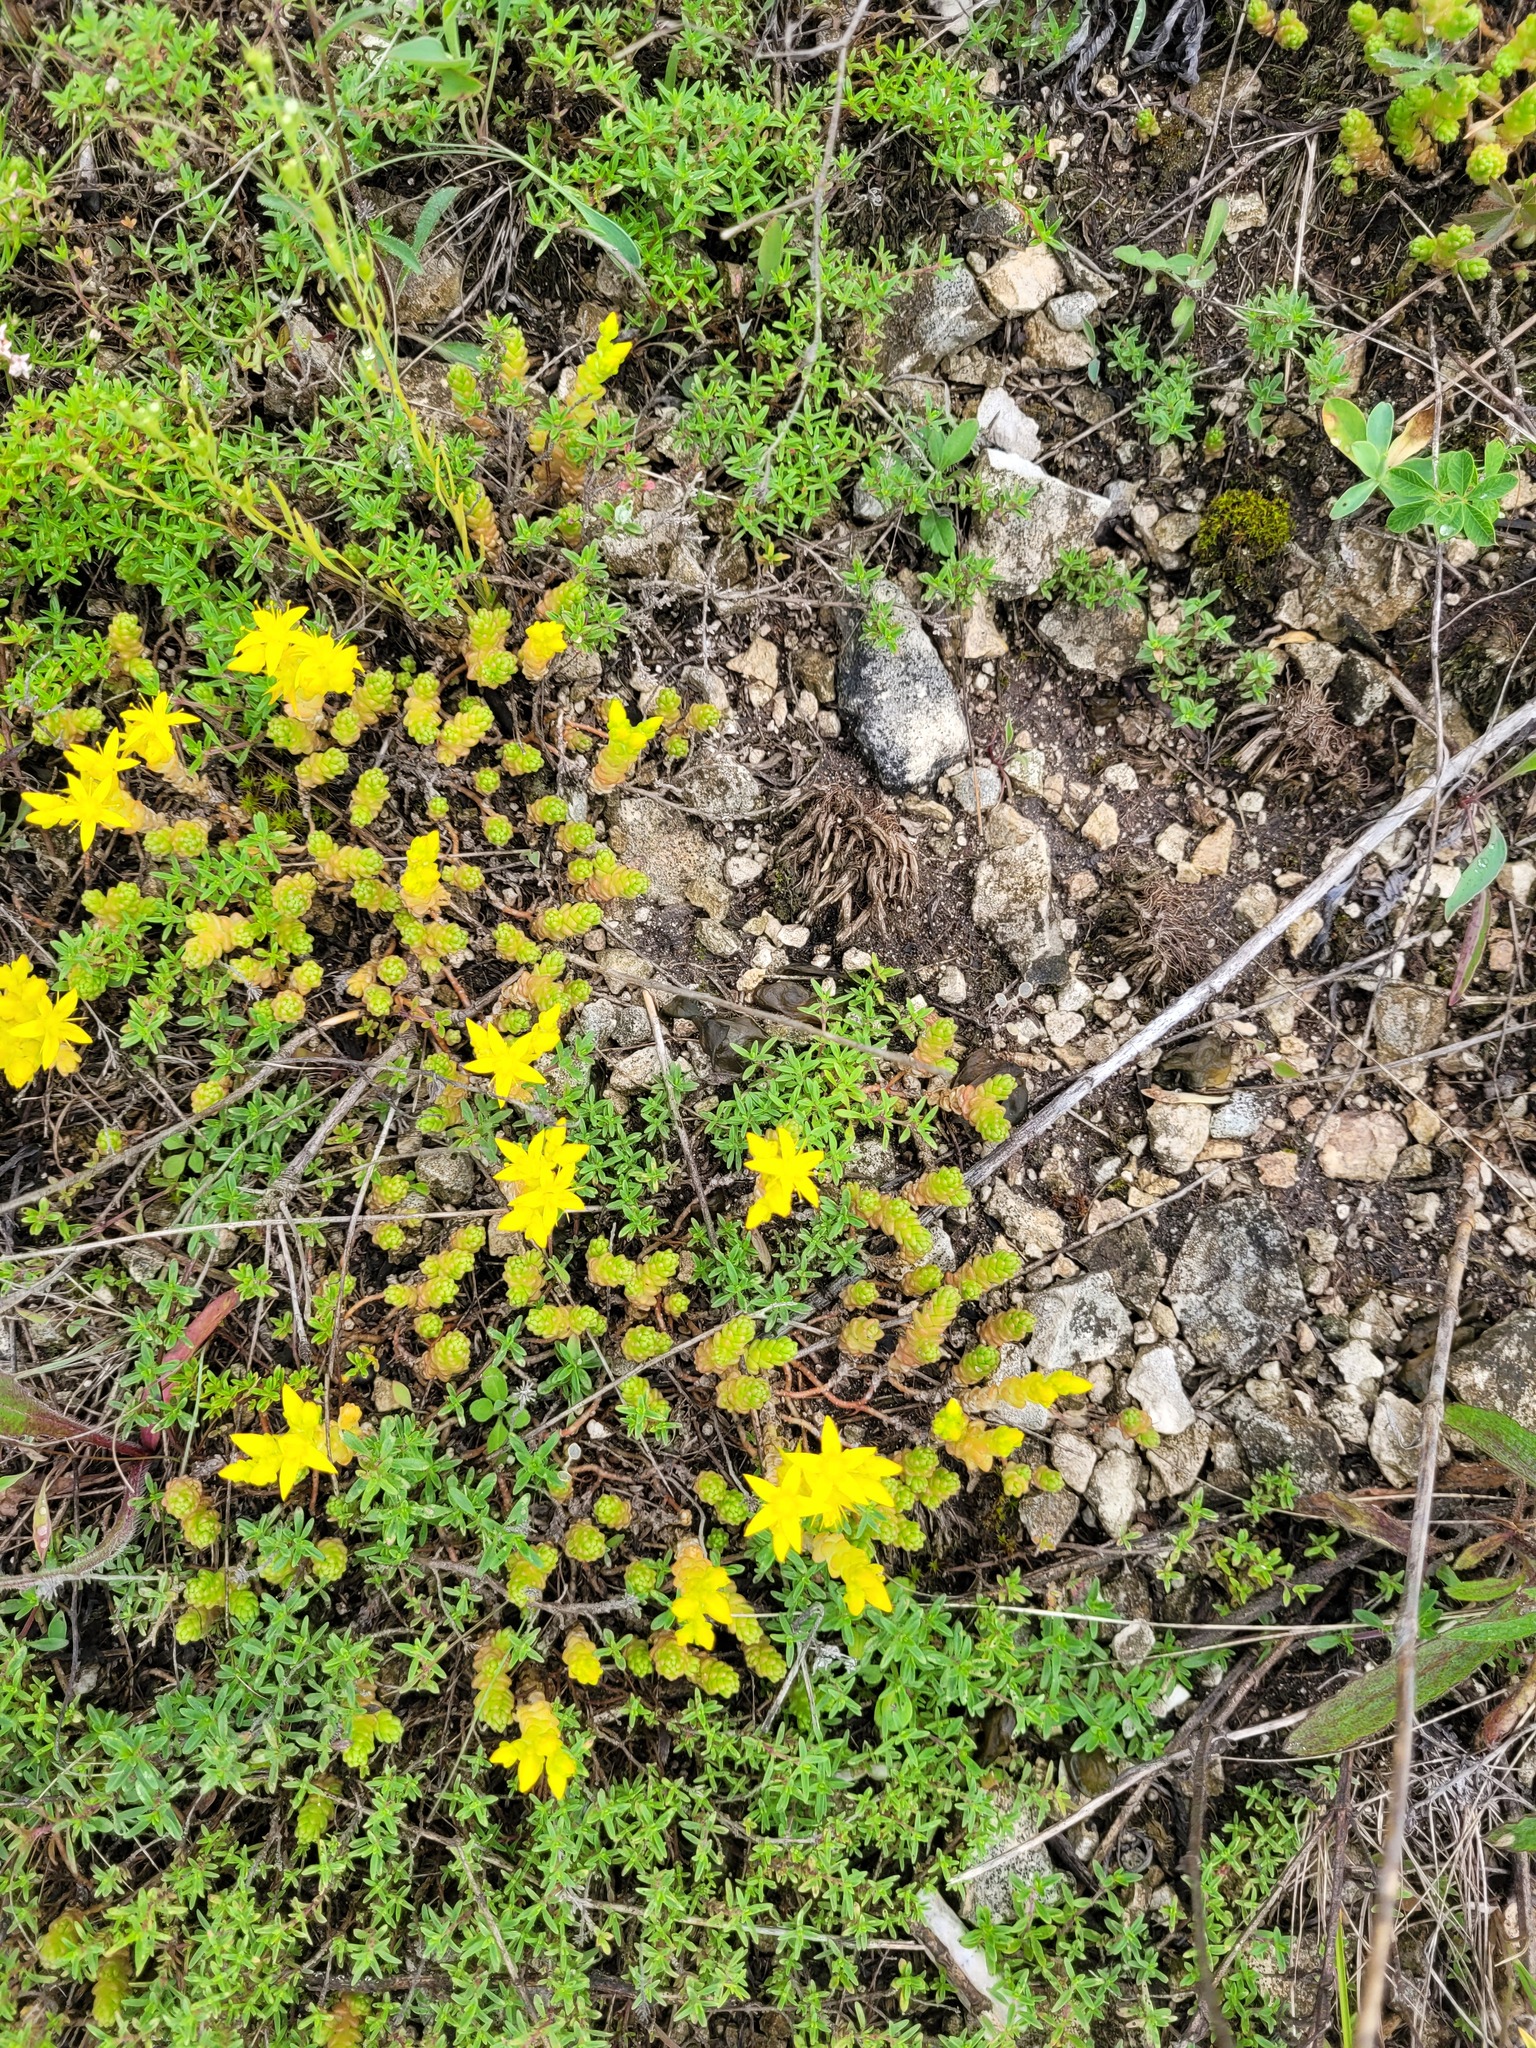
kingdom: Plantae
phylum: Tracheophyta
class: Magnoliopsida
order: Saxifragales
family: Crassulaceae
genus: Sedum
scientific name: Sedum acre
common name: Biting stonecrop
